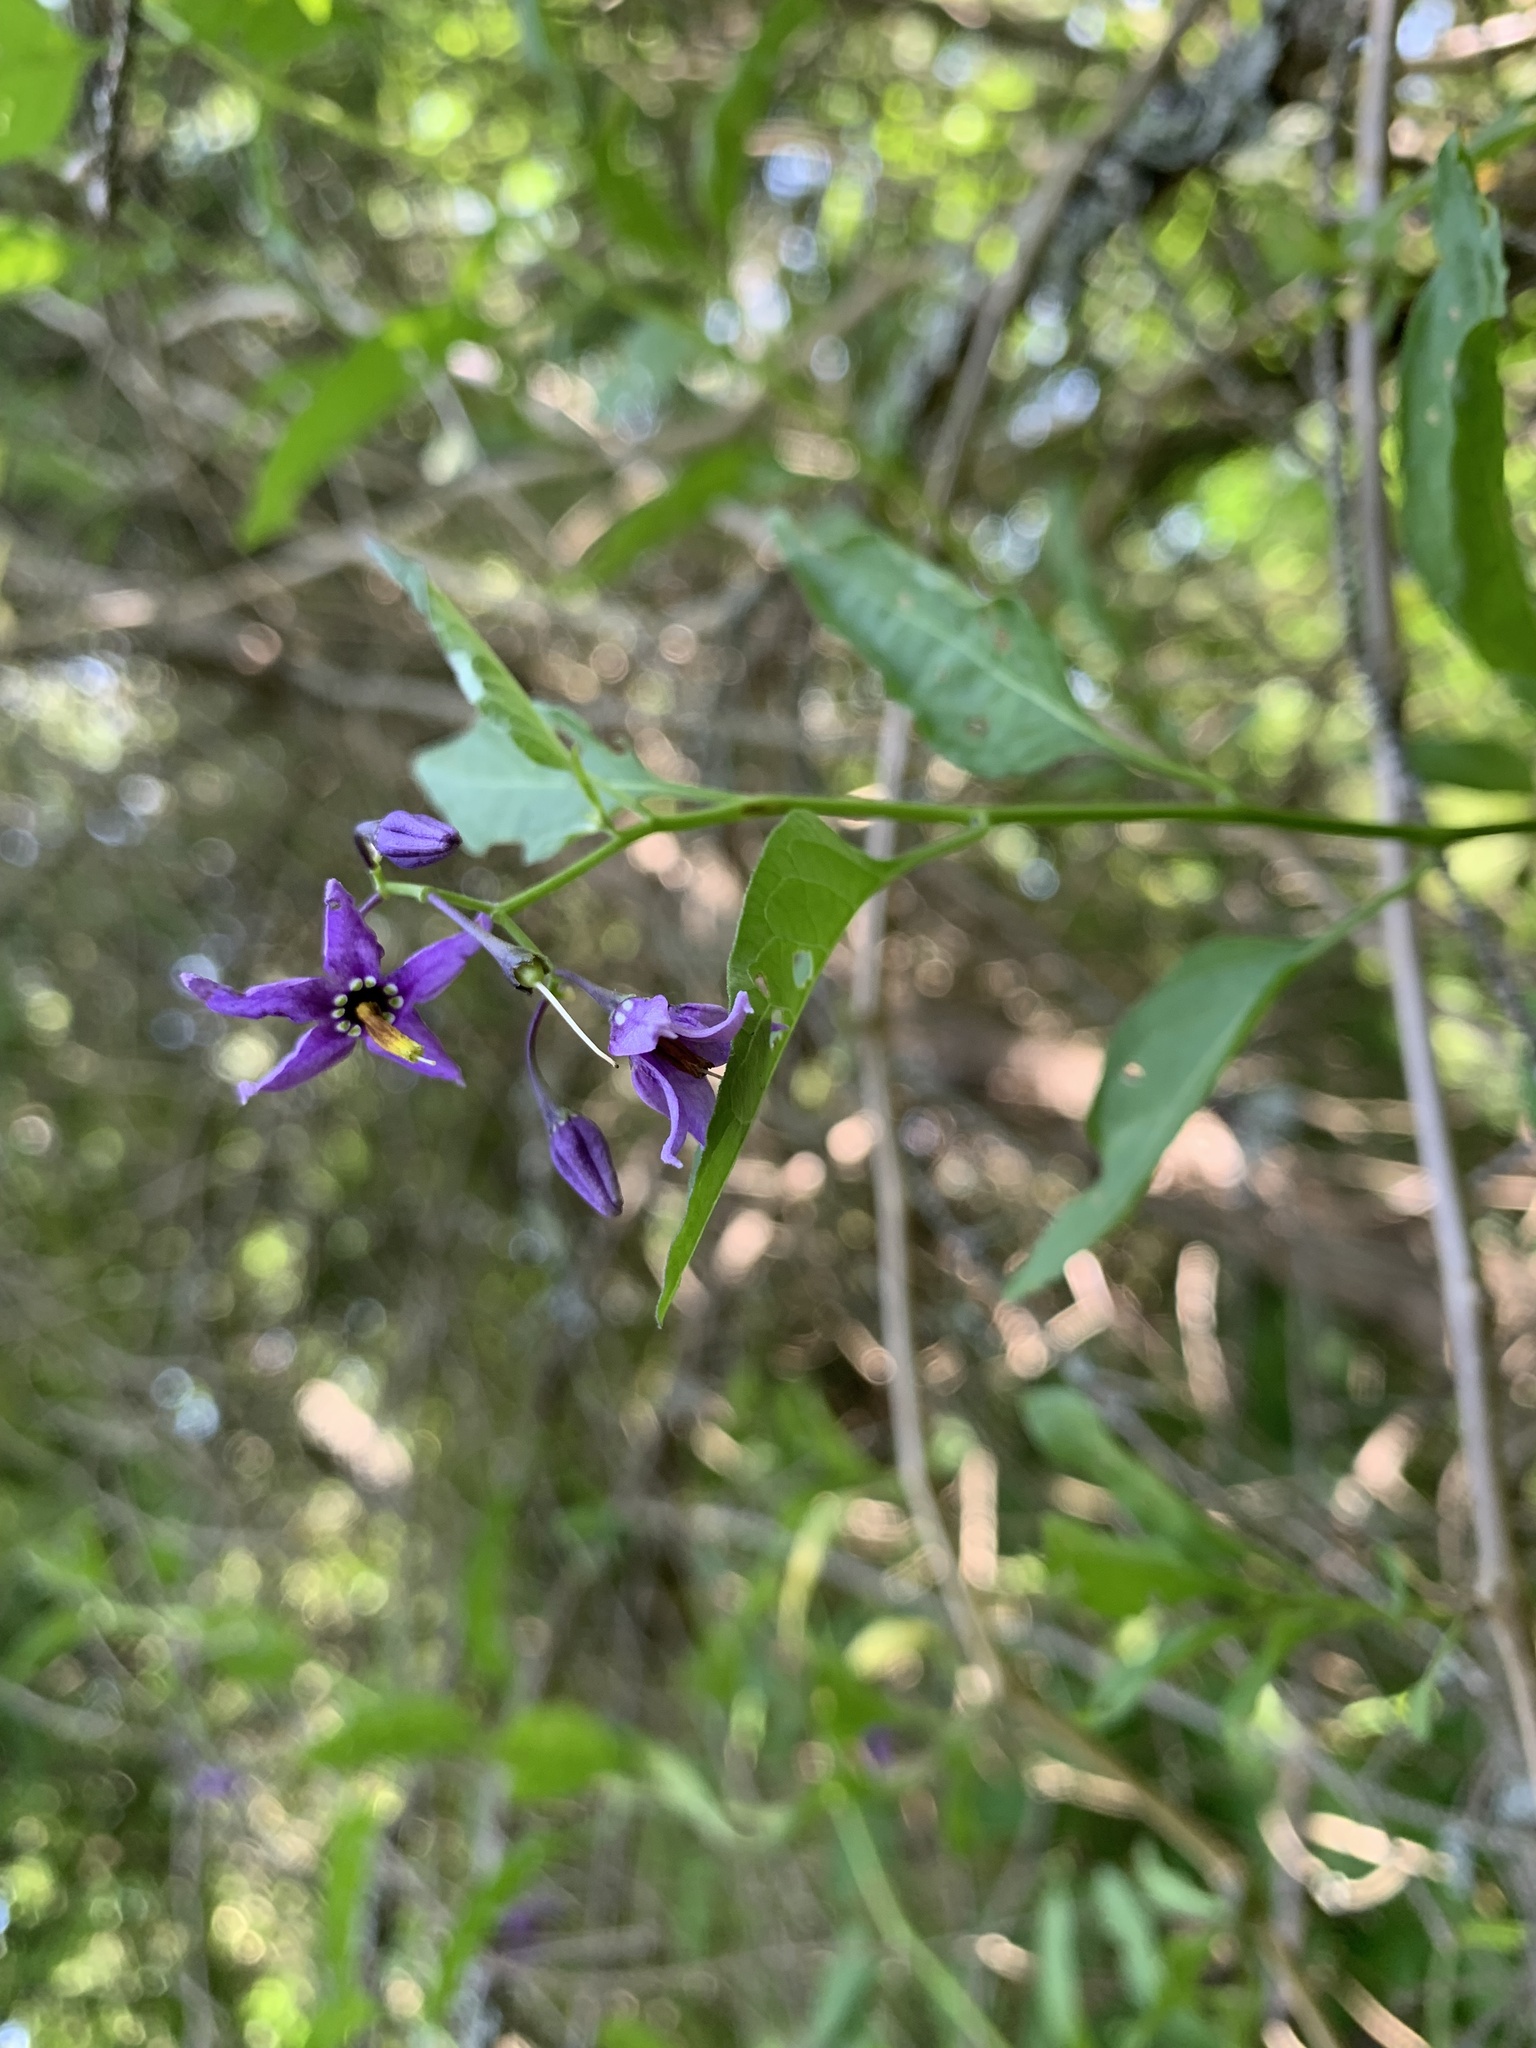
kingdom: Plantae
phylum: Tracheophyta
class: Magnoliopsida
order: Solanales
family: Solanaceae
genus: Solanum
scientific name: Solanum dulcamara
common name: Climbing nightshade
